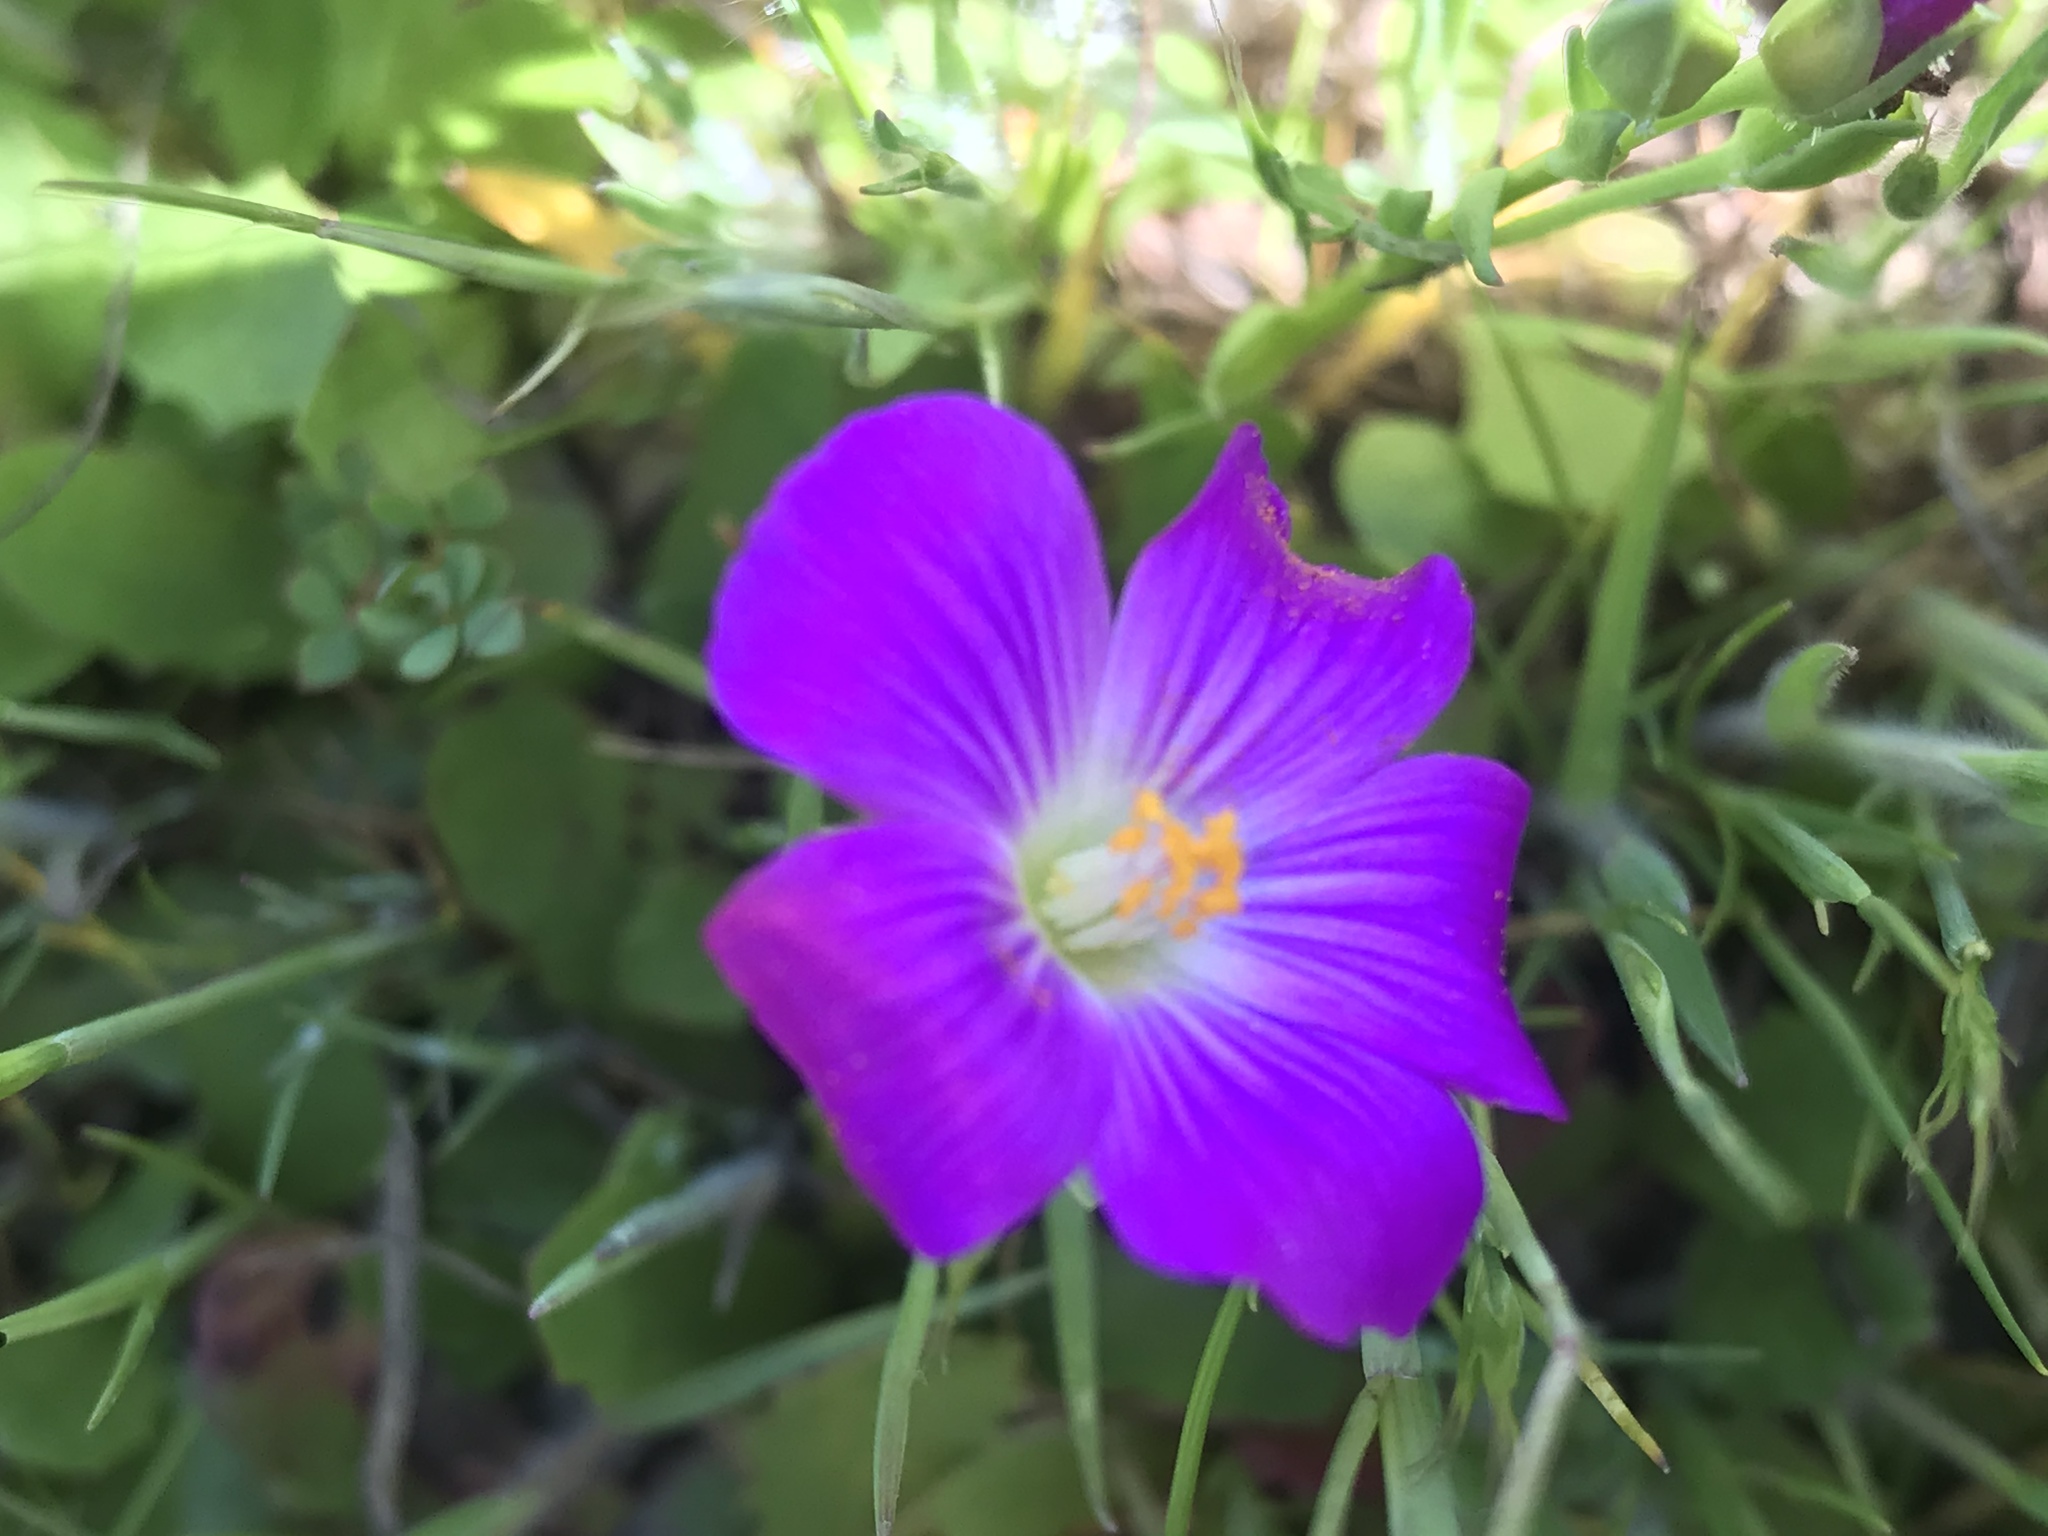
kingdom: Plantae
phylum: Tracheophyta
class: Magnoliopsida
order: Caryophyllales
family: Montiaceae
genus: Calandrinia
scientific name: Calandrinia menziesii
